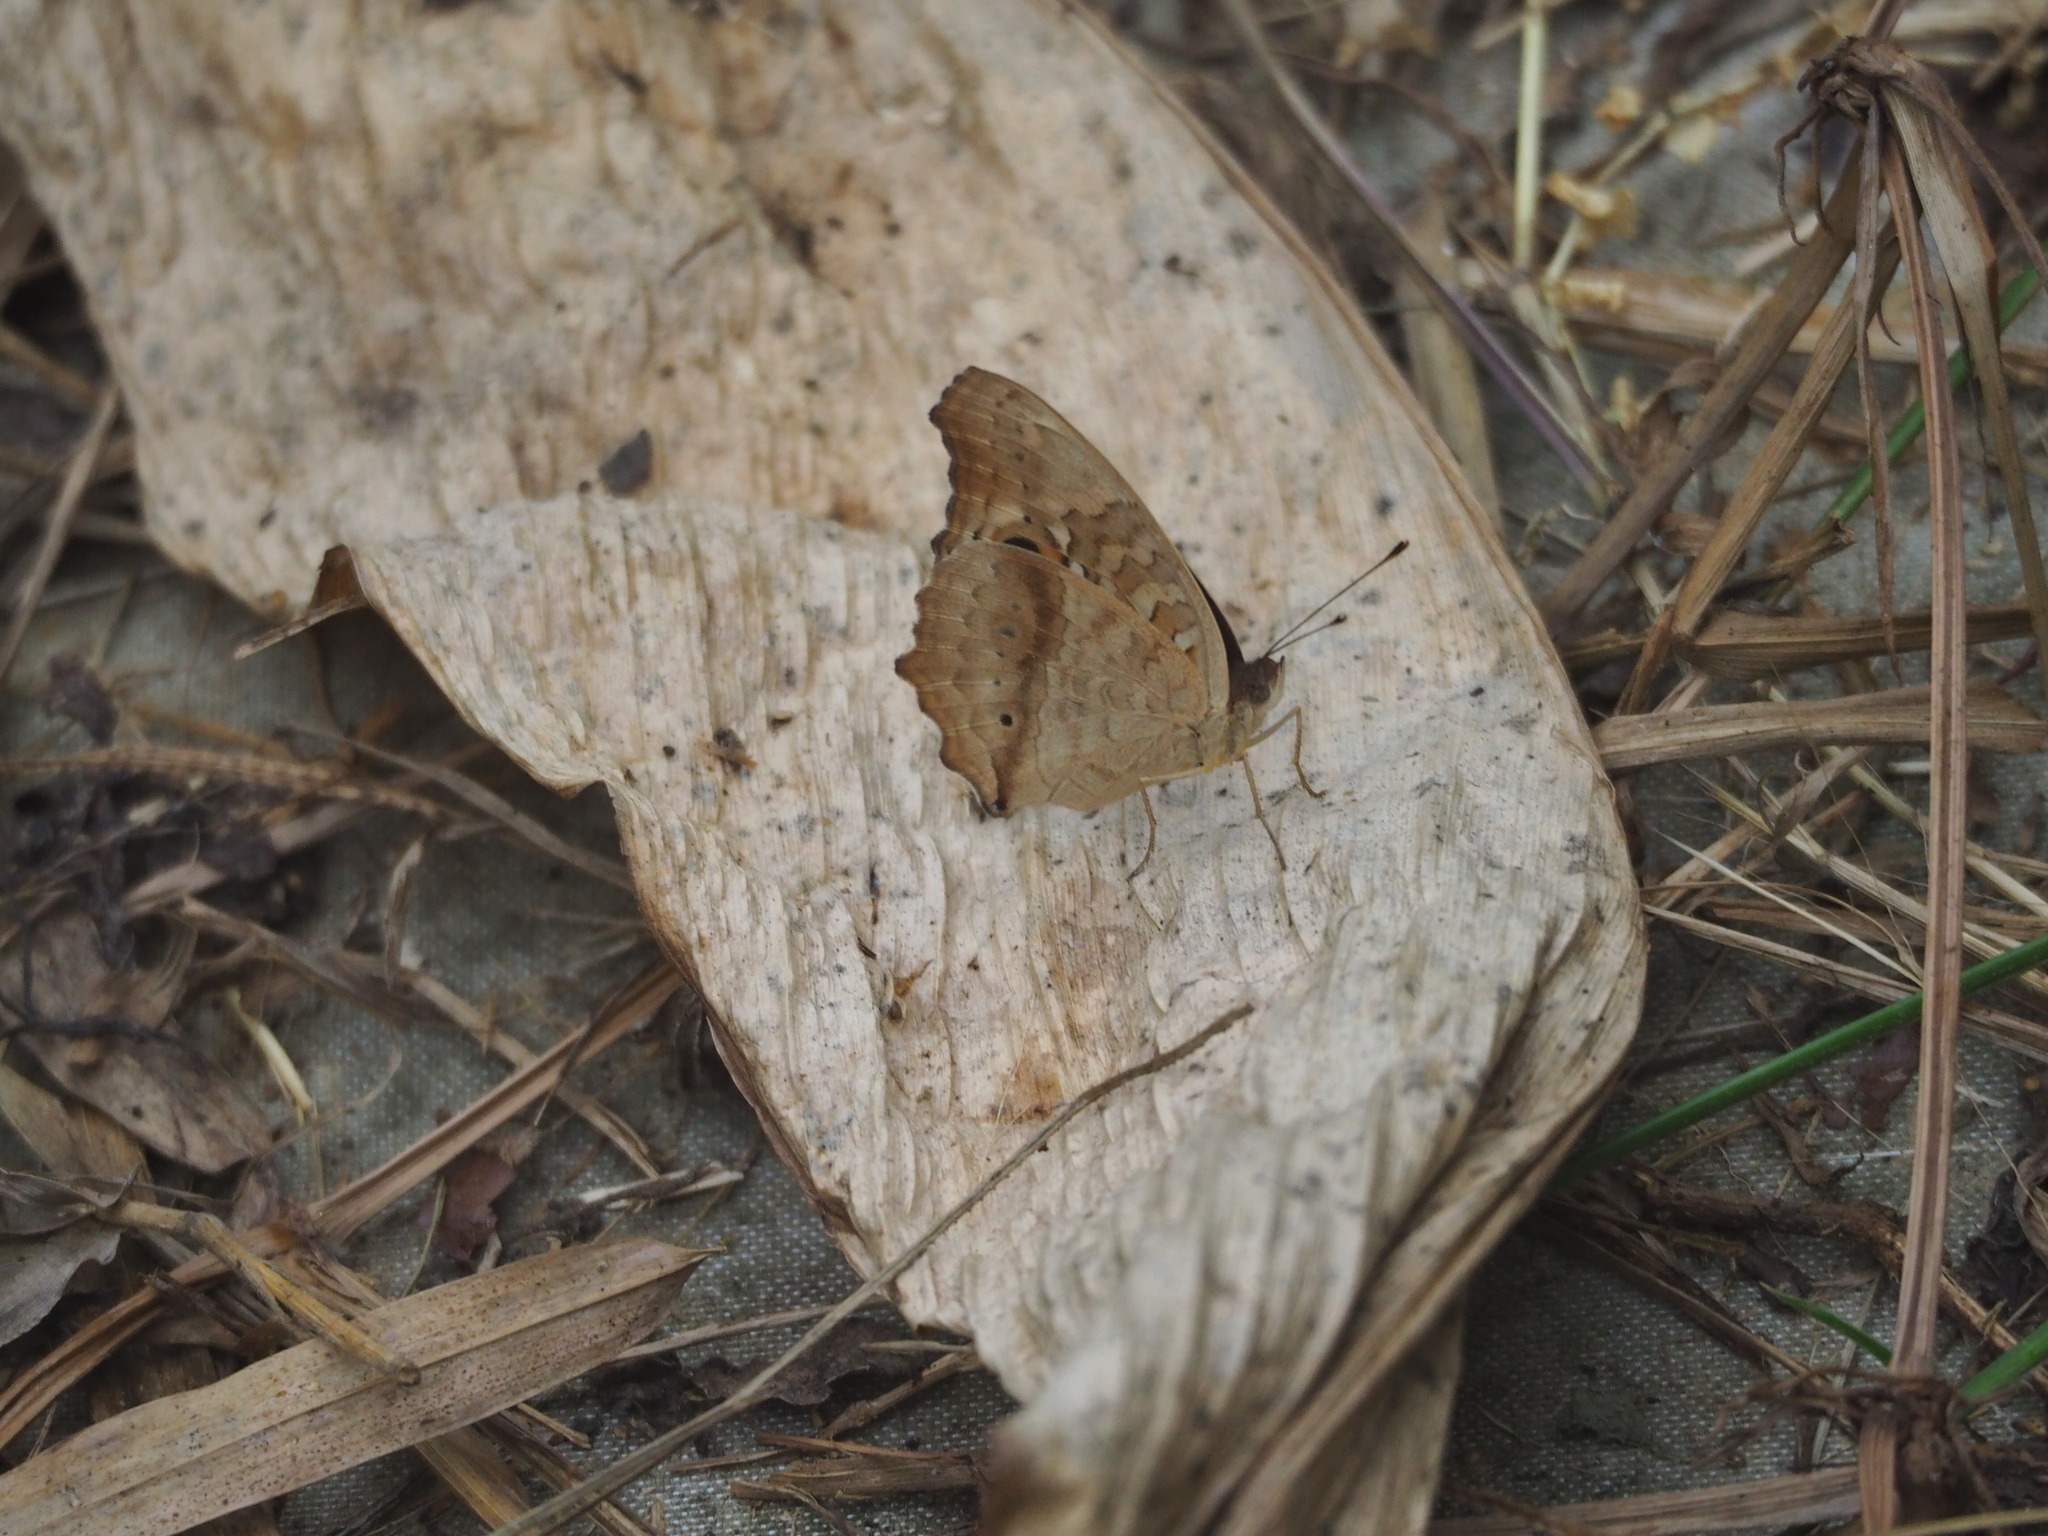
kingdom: Animalia
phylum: Arthropoda
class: Insecta
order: Lepidoptera
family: Nymphalidae
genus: Junonia
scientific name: Junonia lemonias
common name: Lemon pansy
